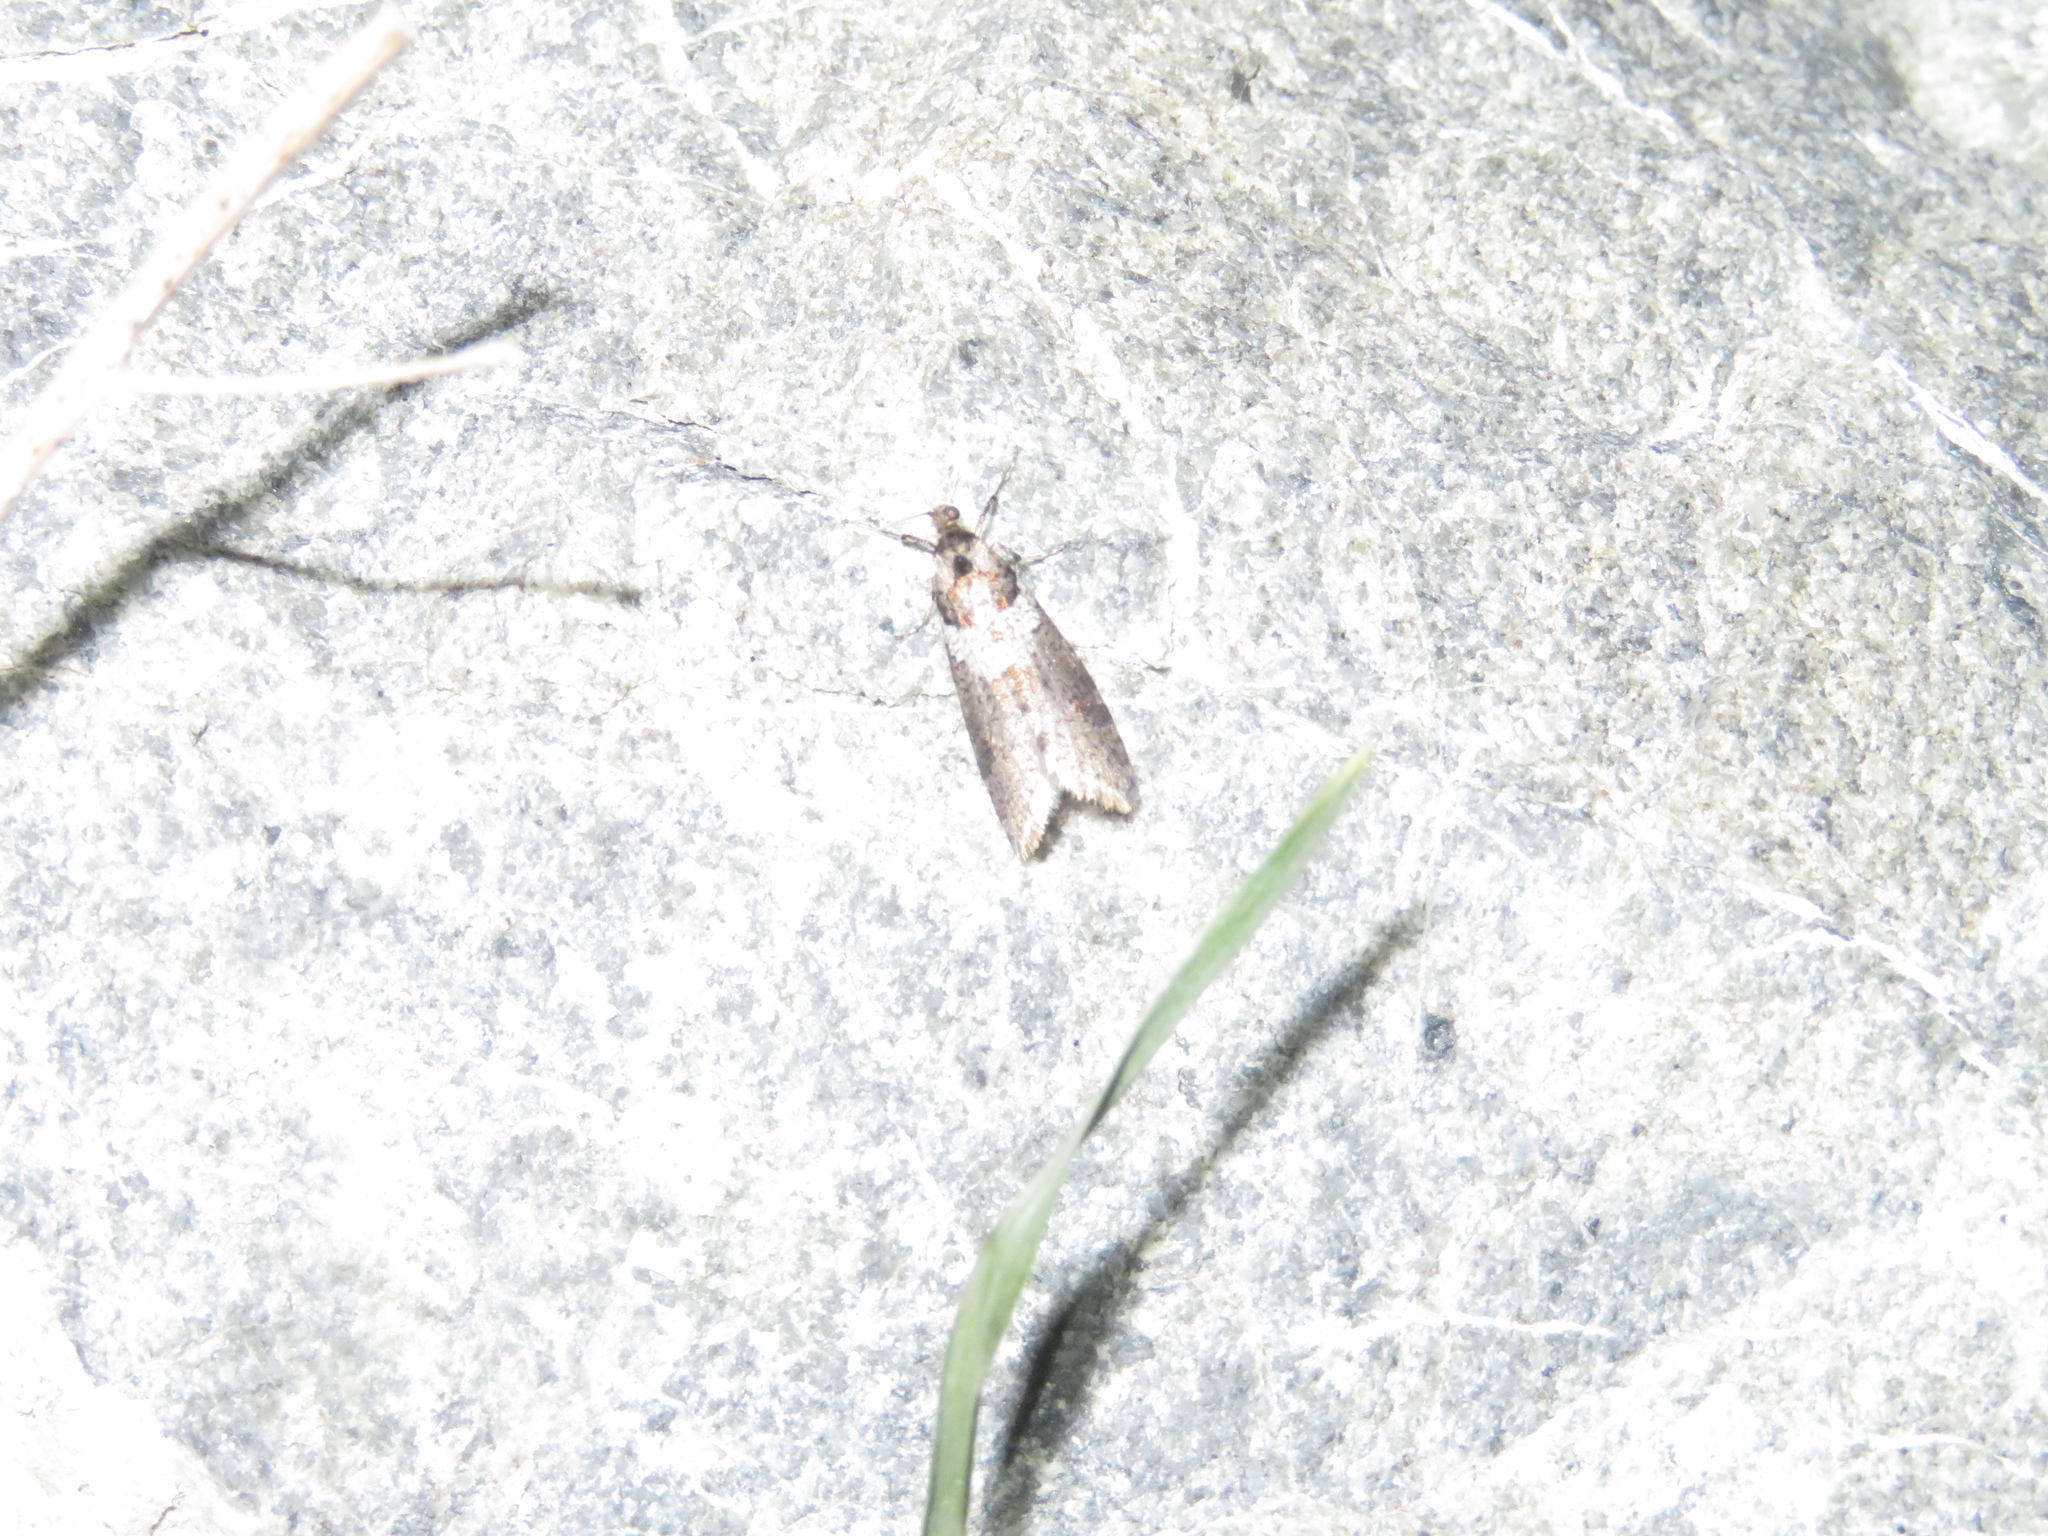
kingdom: Animalia
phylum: Arthropoda
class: Insecta
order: Lepidoptera
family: Psychidae
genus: Lepidoscia
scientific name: Lepidoscia heliochares
